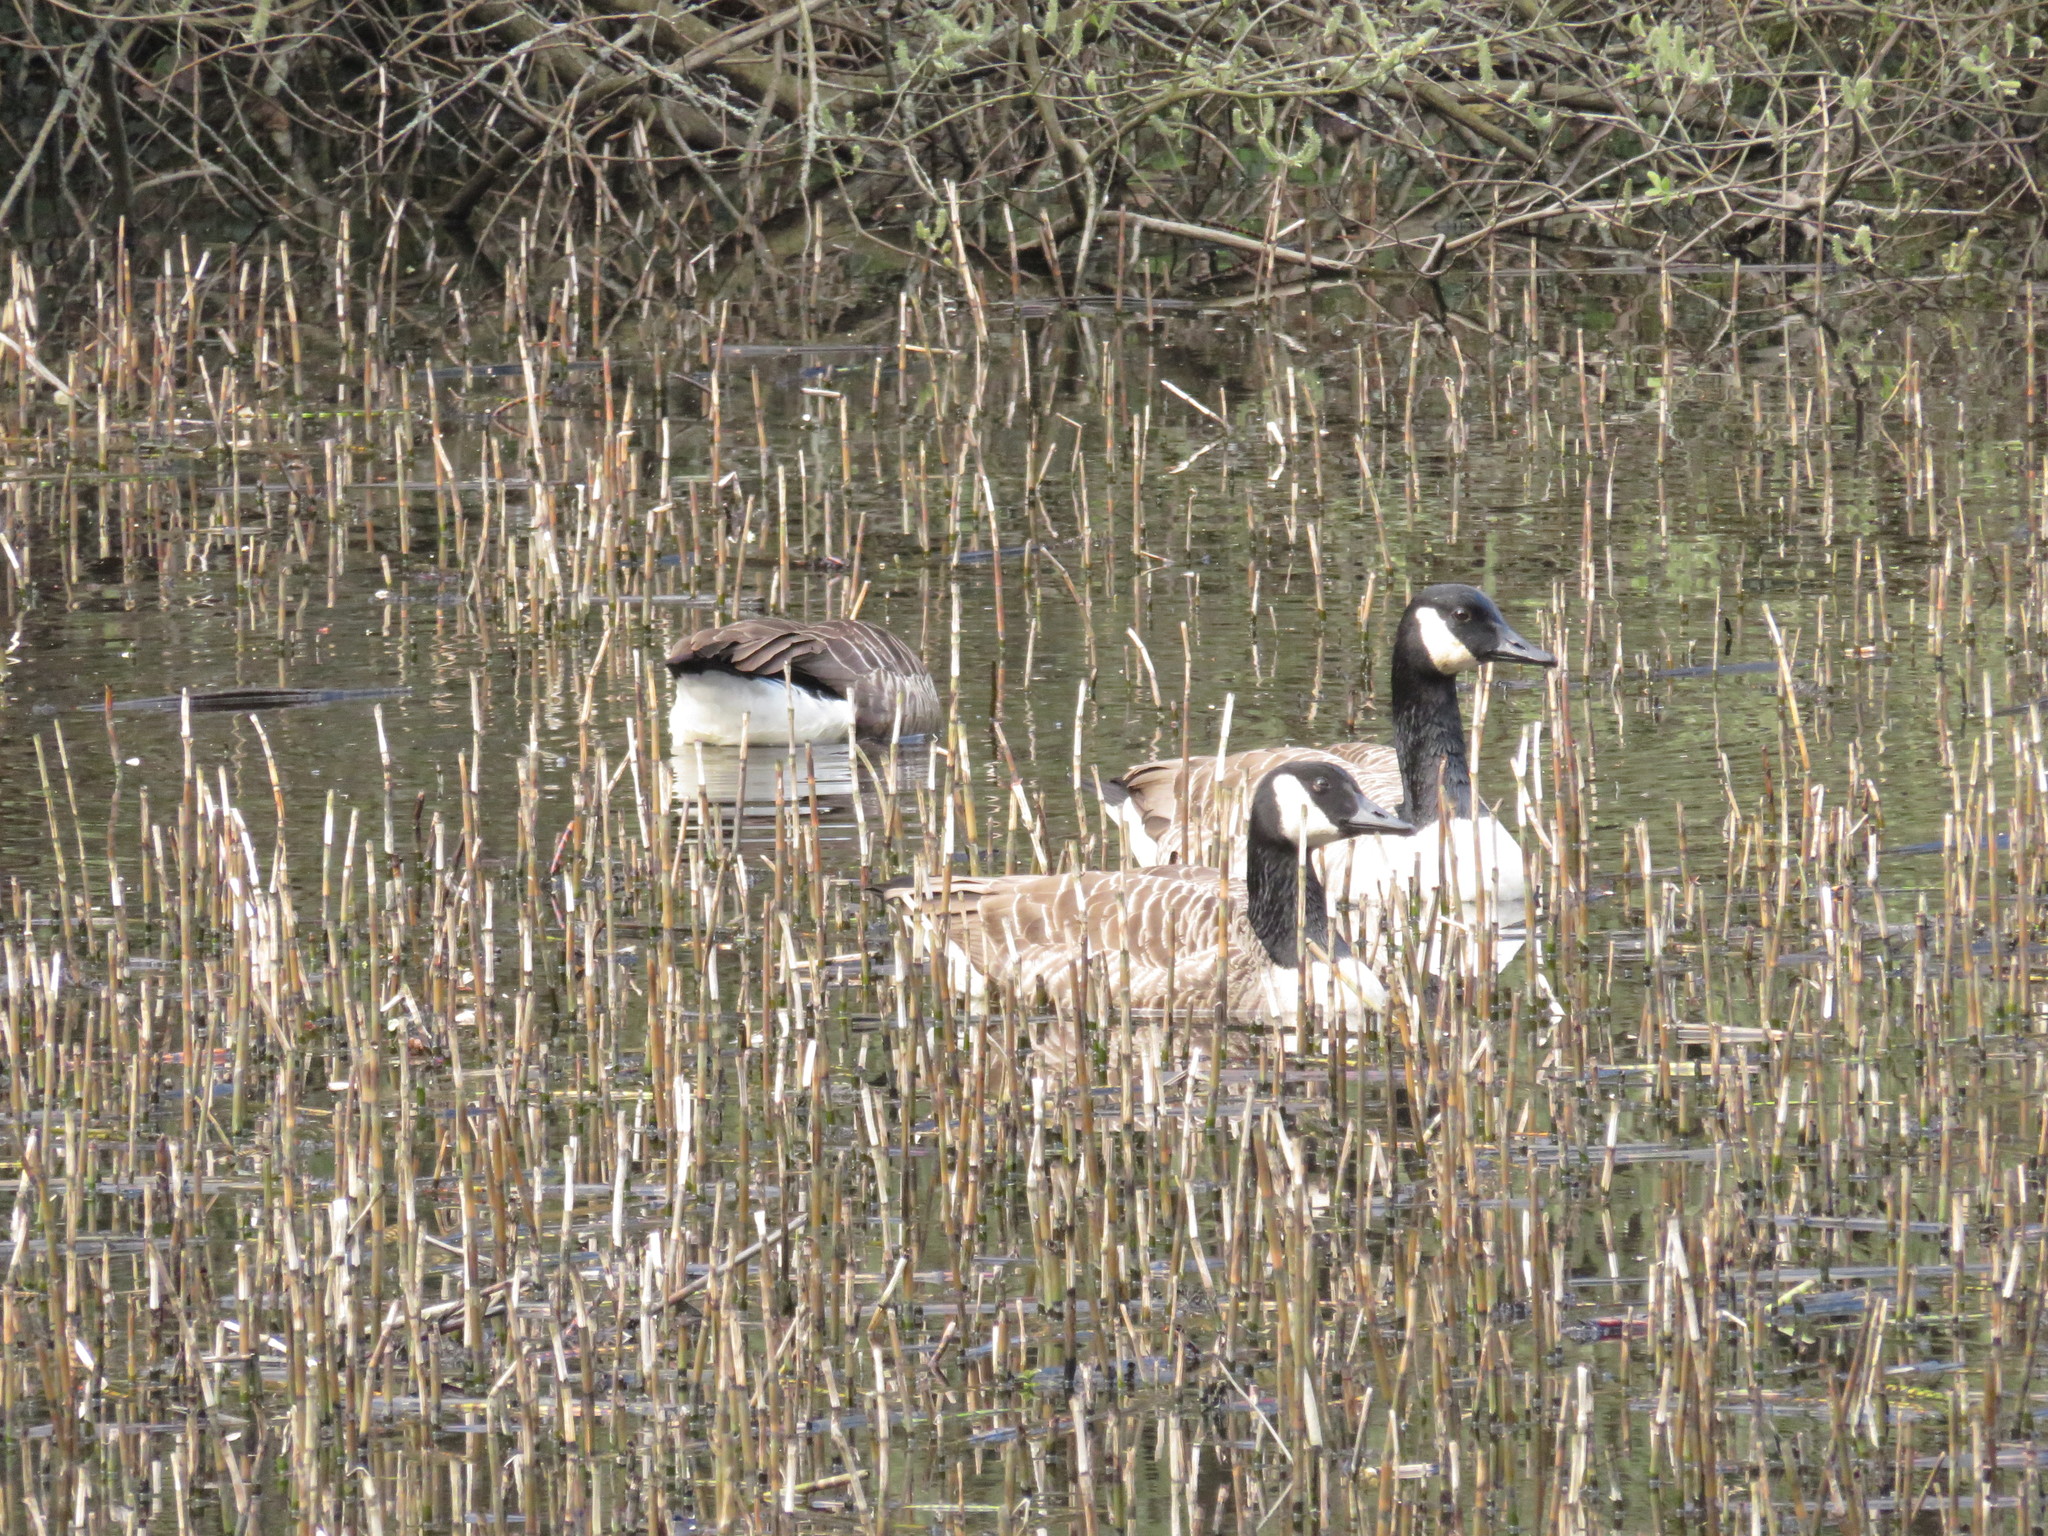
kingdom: Animalia
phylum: Chordata
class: Aves
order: Anseriformes
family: Anatidae
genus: Branta
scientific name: Branta canadensis
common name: Canada goose
